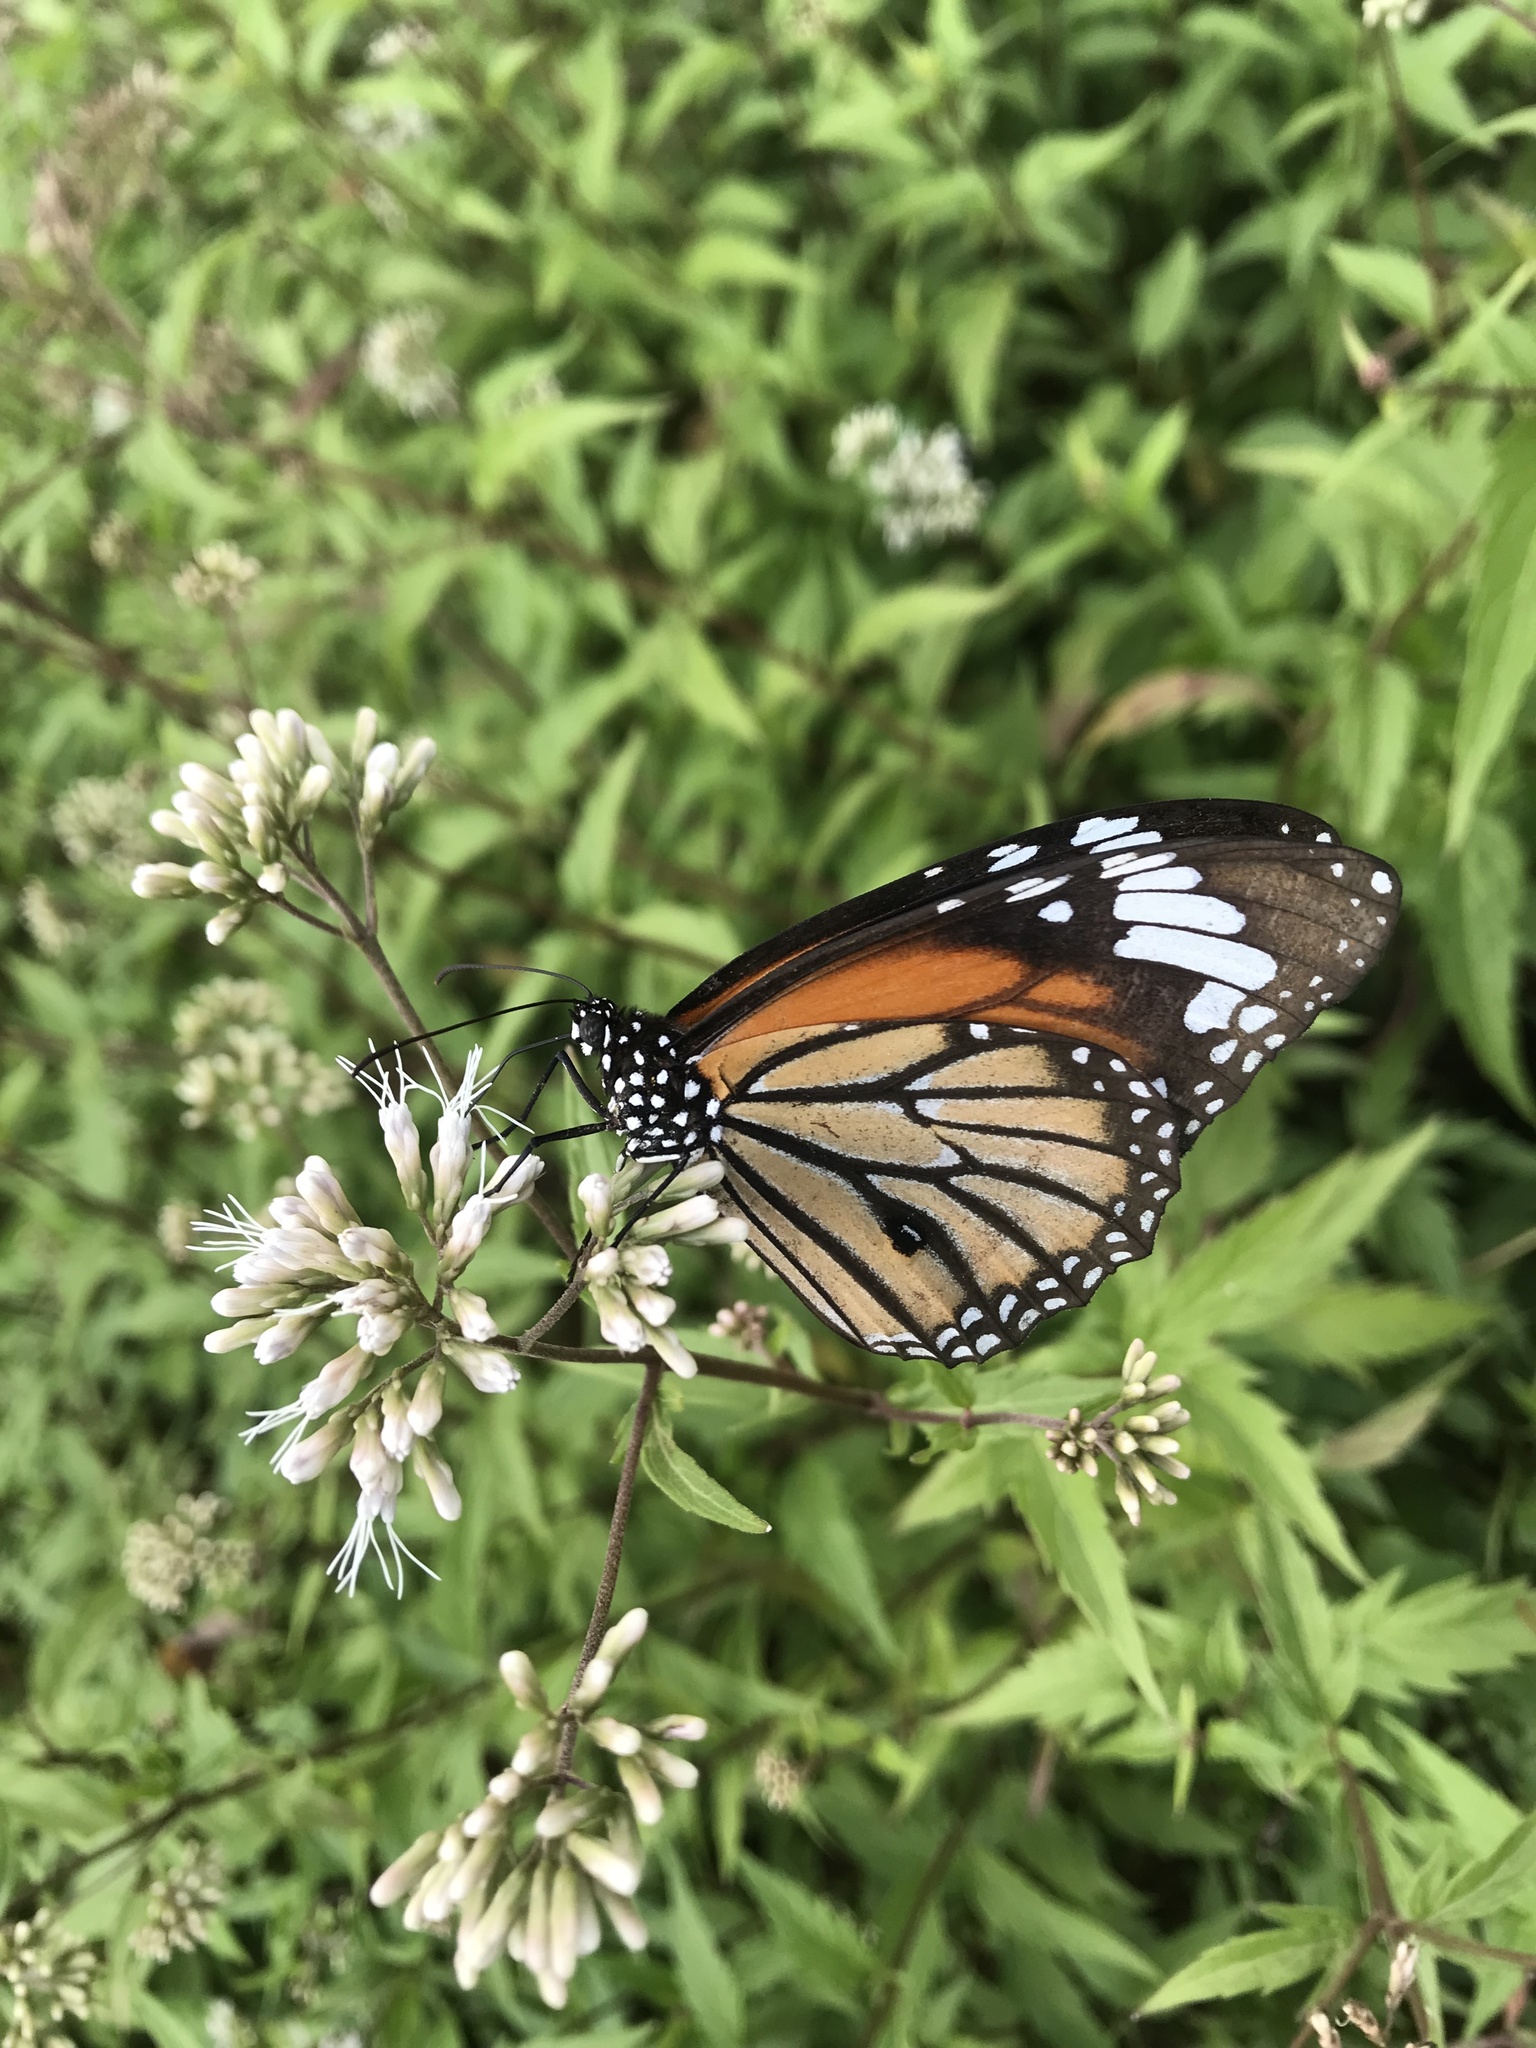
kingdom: Animalia
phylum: Arthropoda
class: Insecta
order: Lepidoptera
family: Nymphalidae
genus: Danaus
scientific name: Danaus genutia
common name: Common tiger butterfly
